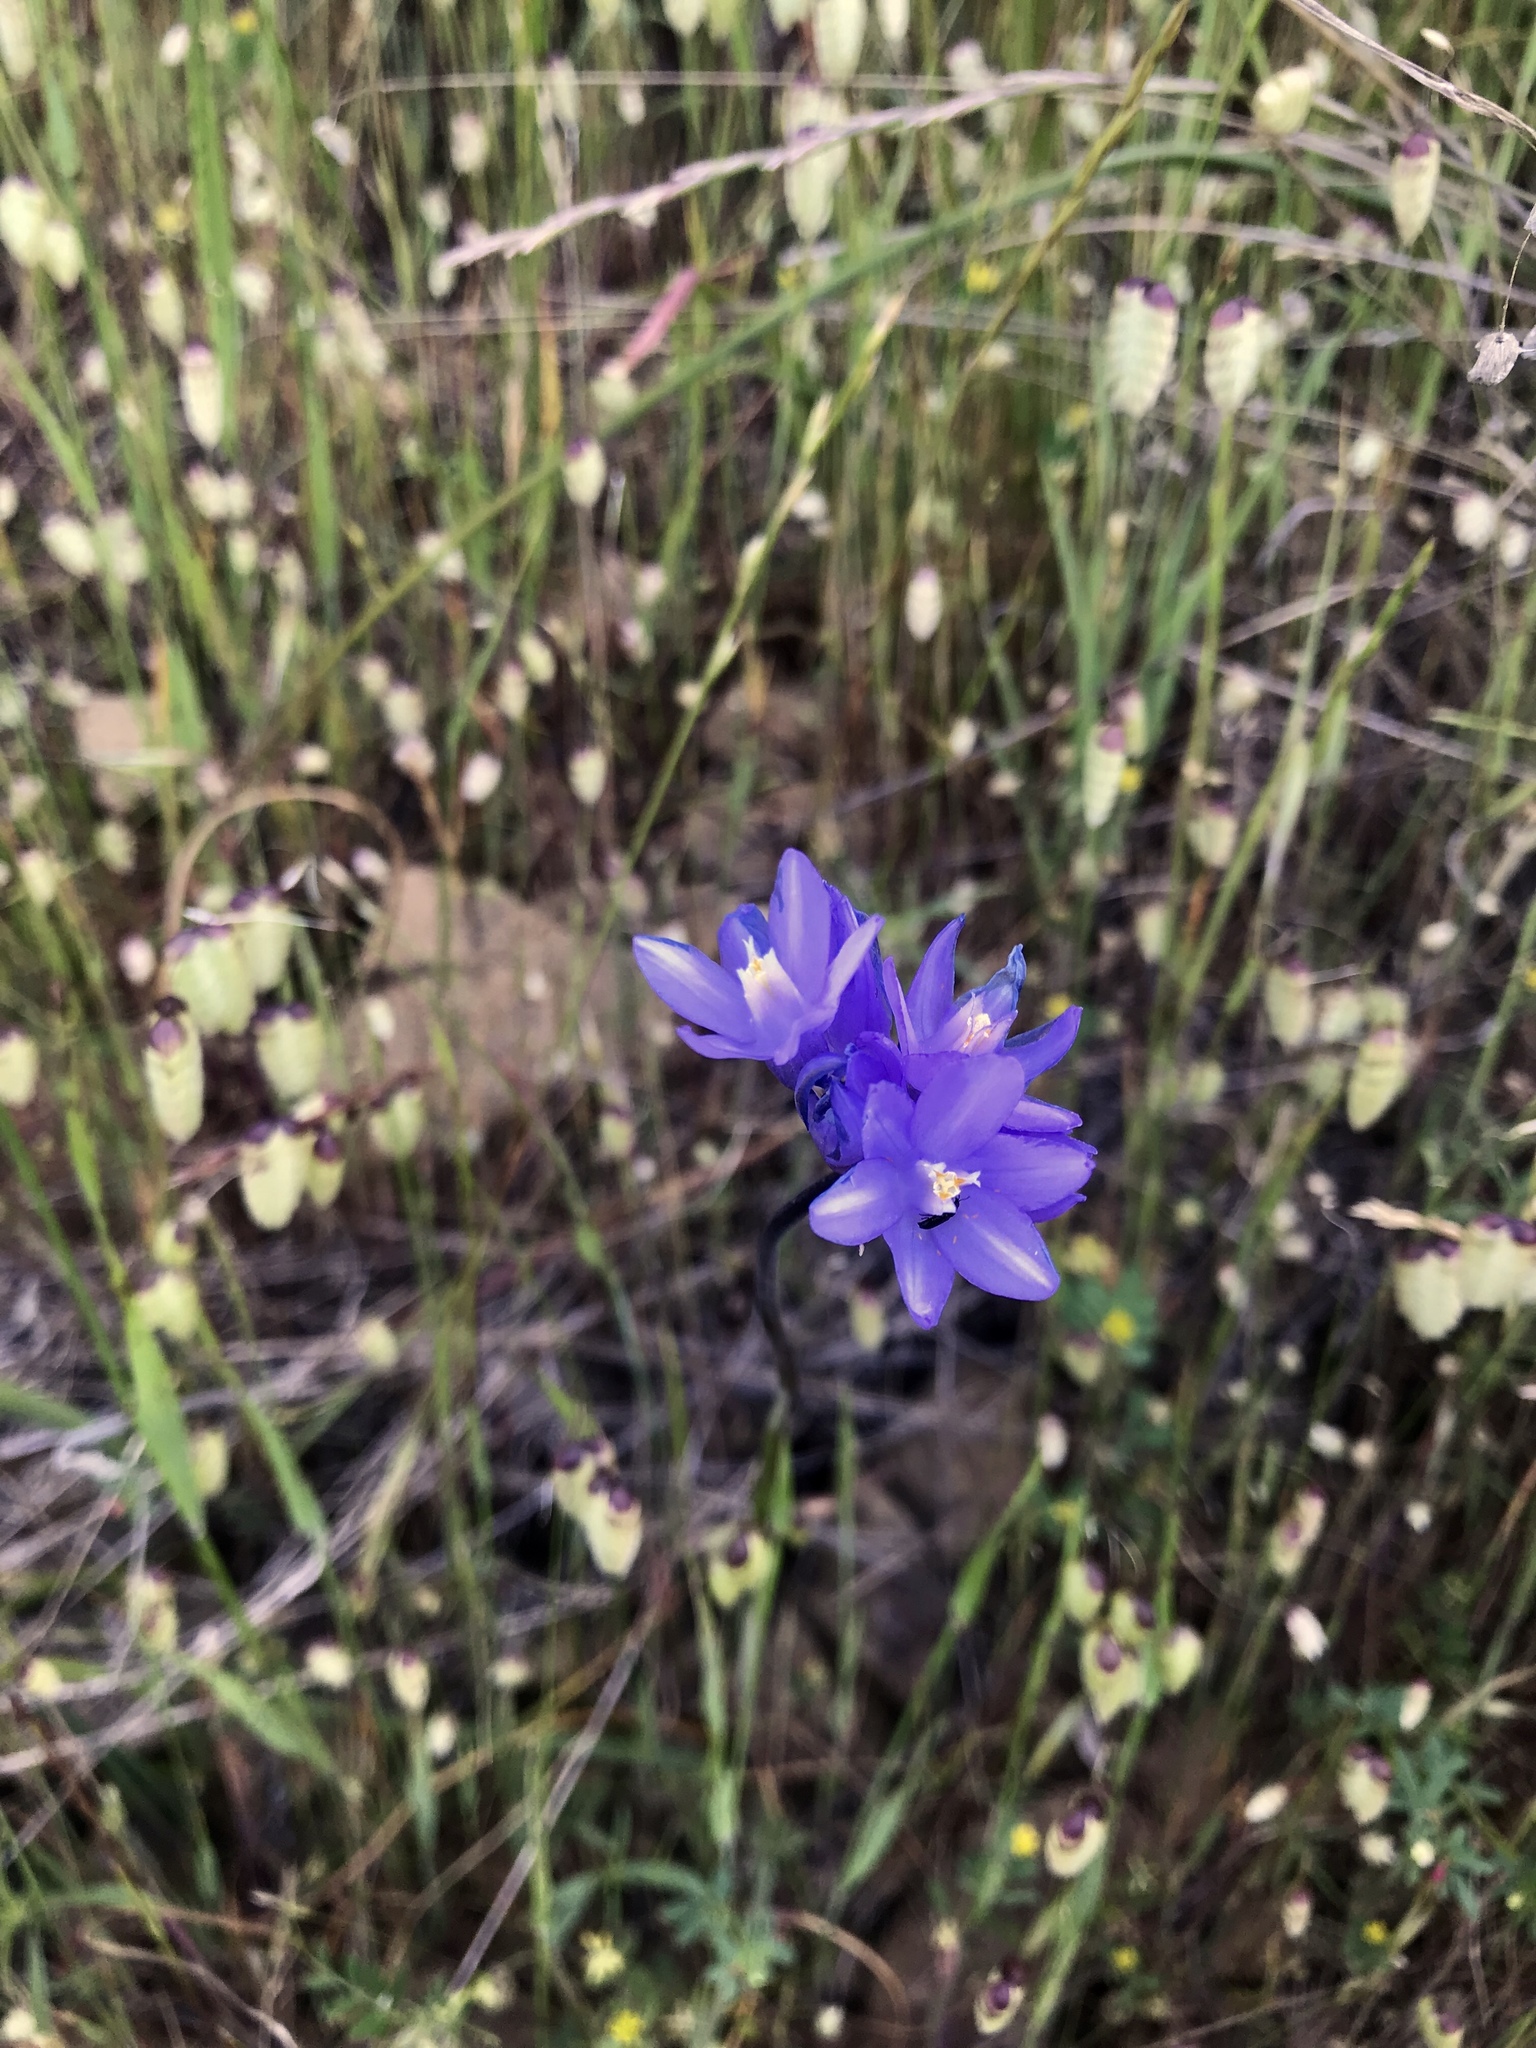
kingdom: Plantae
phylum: Tracheophyta
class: Liliopsida
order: Asparagales
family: Asparagaceae
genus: Dipterostemon
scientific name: Dipterostemon capitatus
